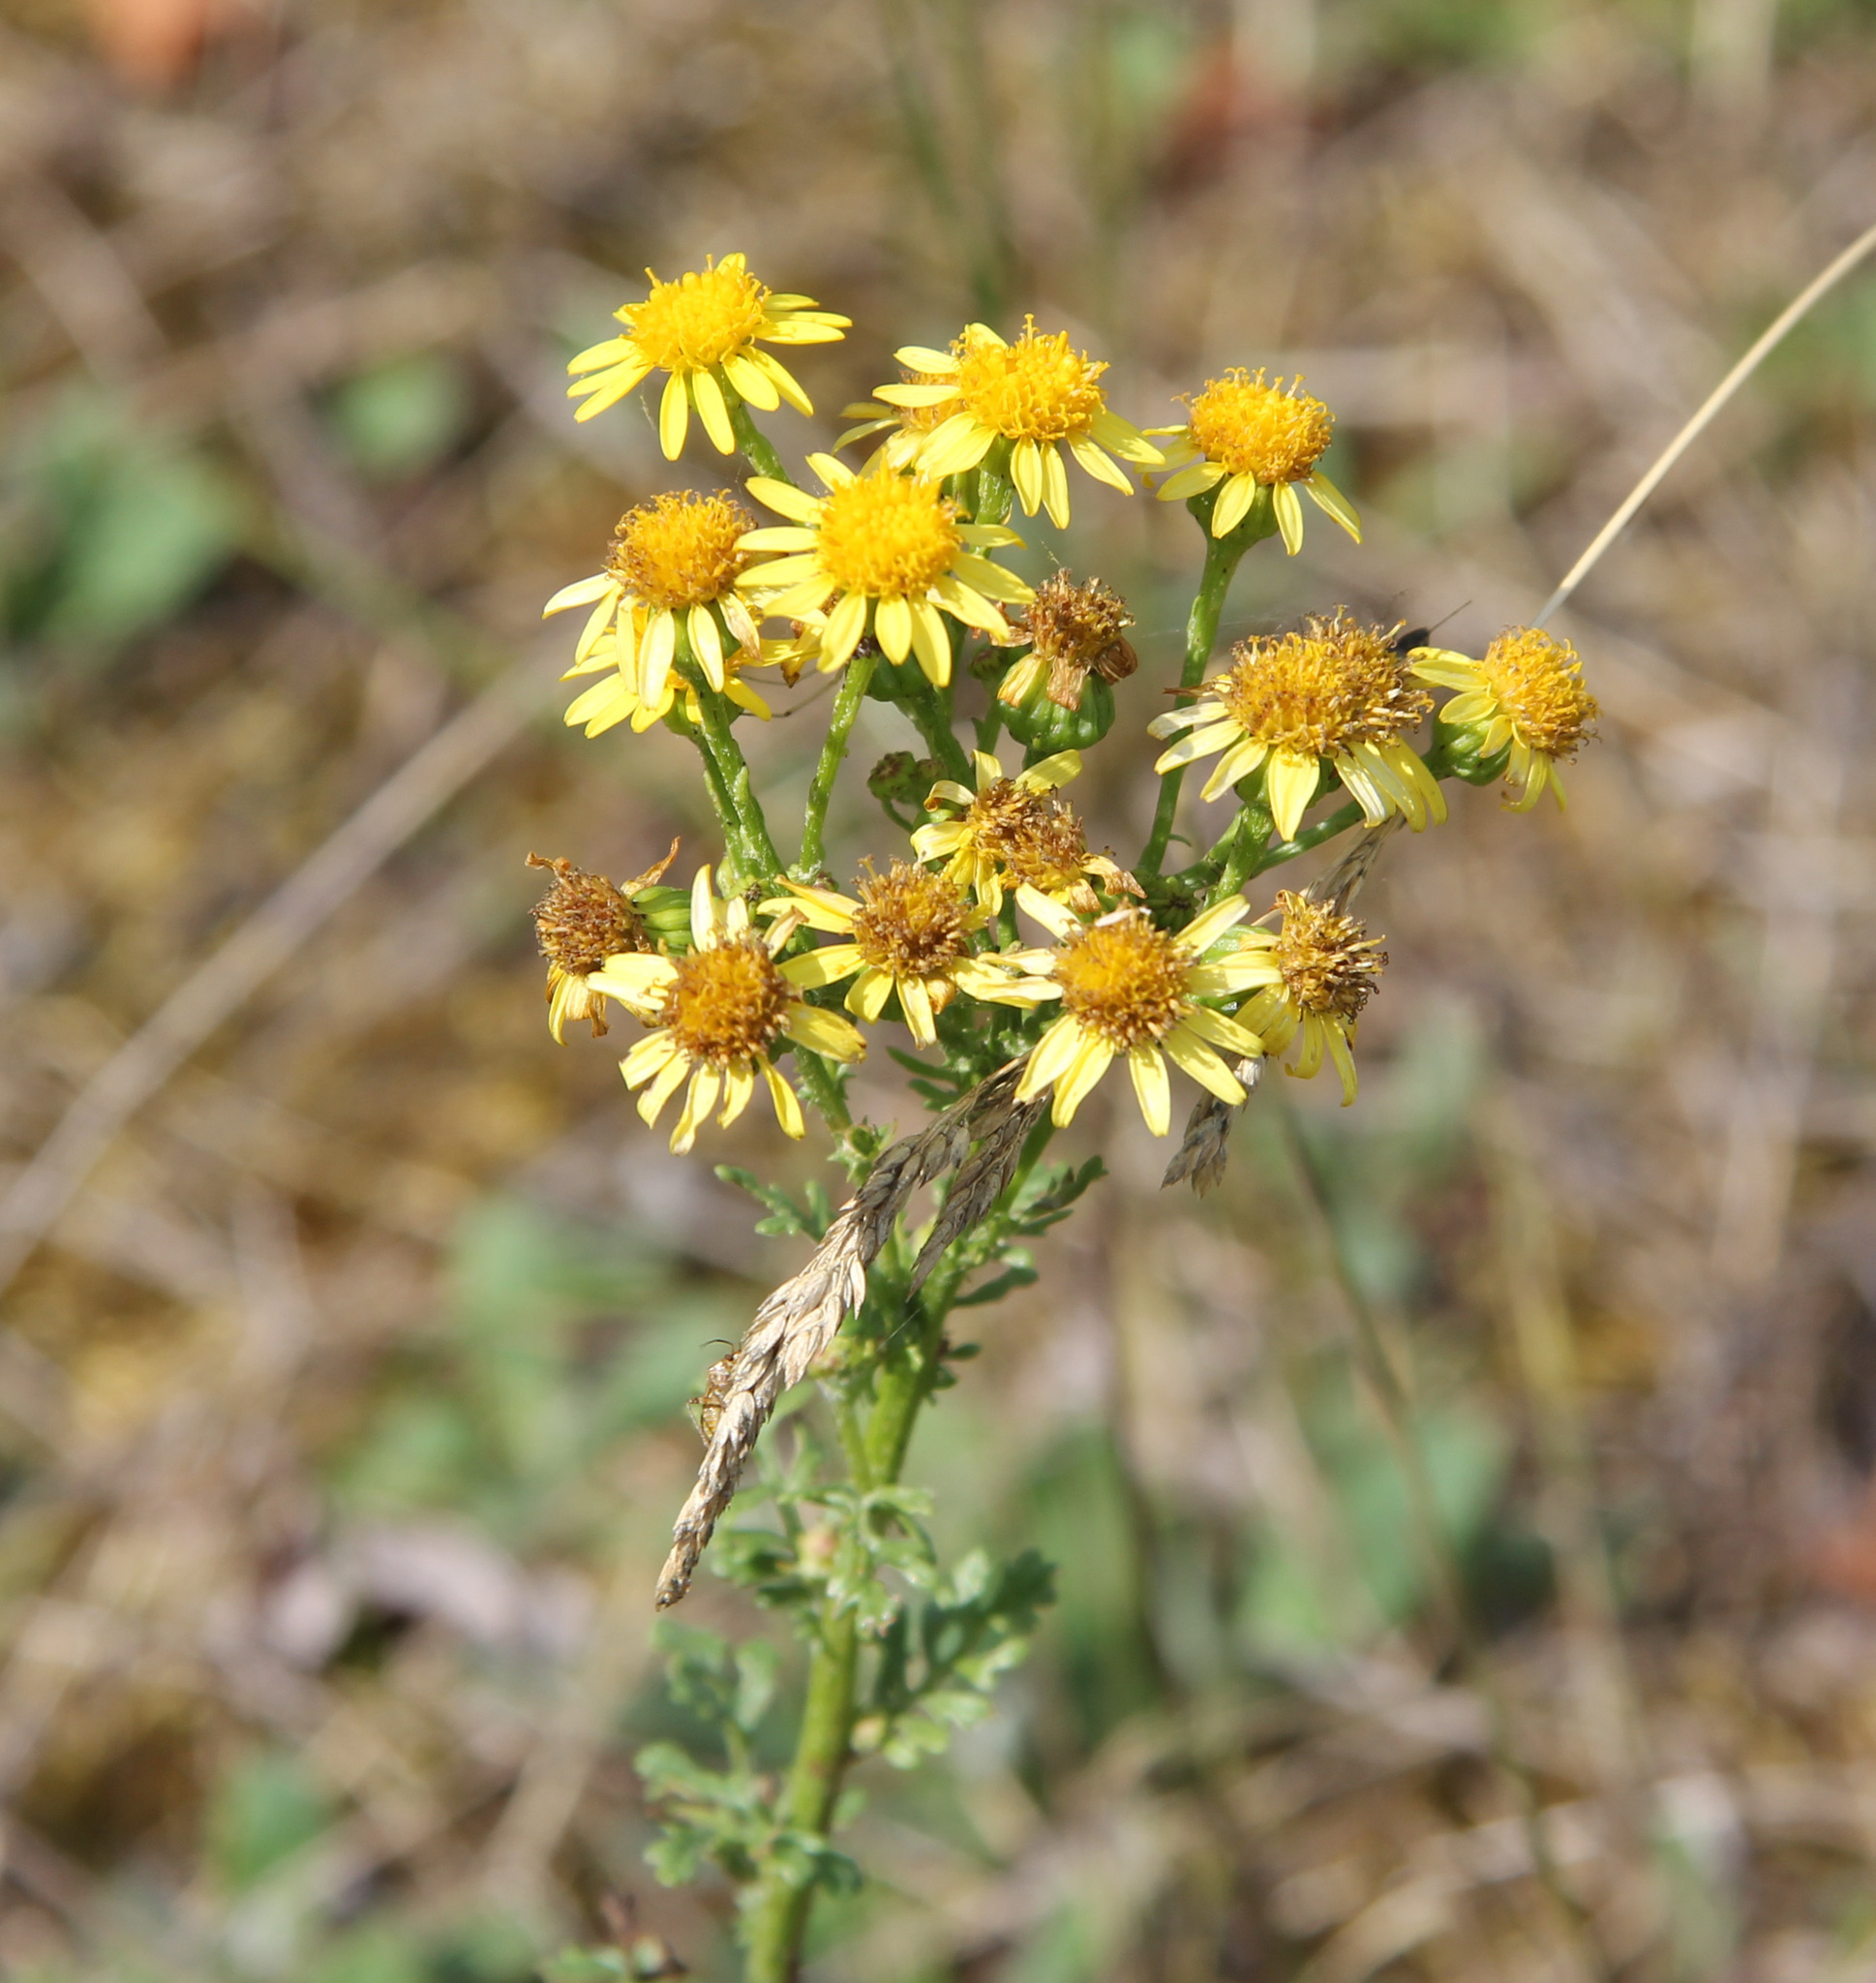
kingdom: Plantae
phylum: Tracheophyta
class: Magnoliopsida
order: Asterales
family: Asteraceae
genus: Jacobaea
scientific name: Jacobaea vulgaris
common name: Stinking willie
